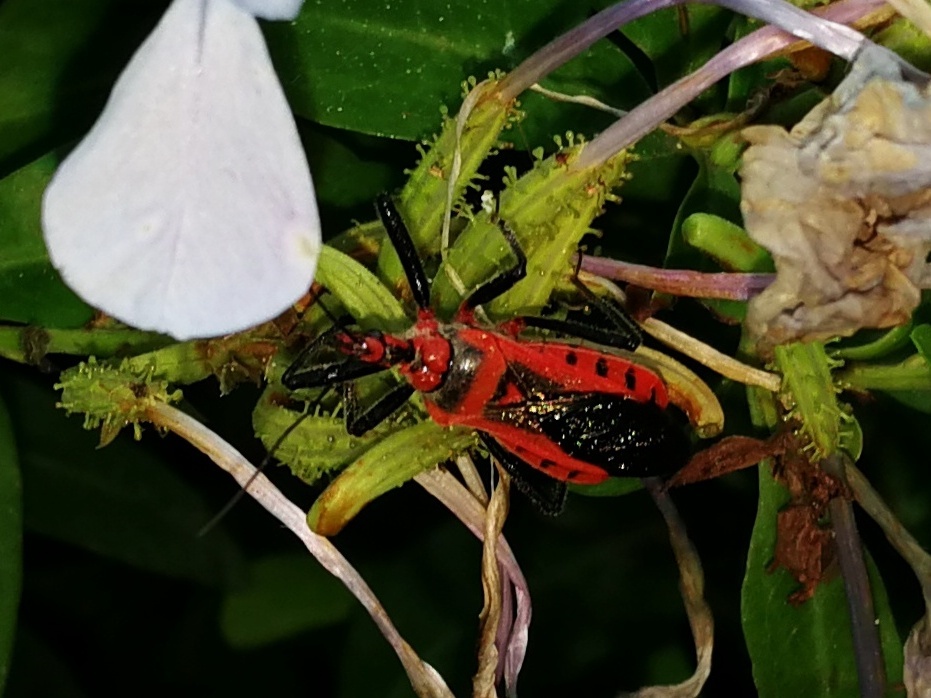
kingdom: Animalia
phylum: Arthropoda
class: Insecta
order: Hemiptera
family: Reduviidae
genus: Rhynocoris
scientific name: Rhynocoris costalis
